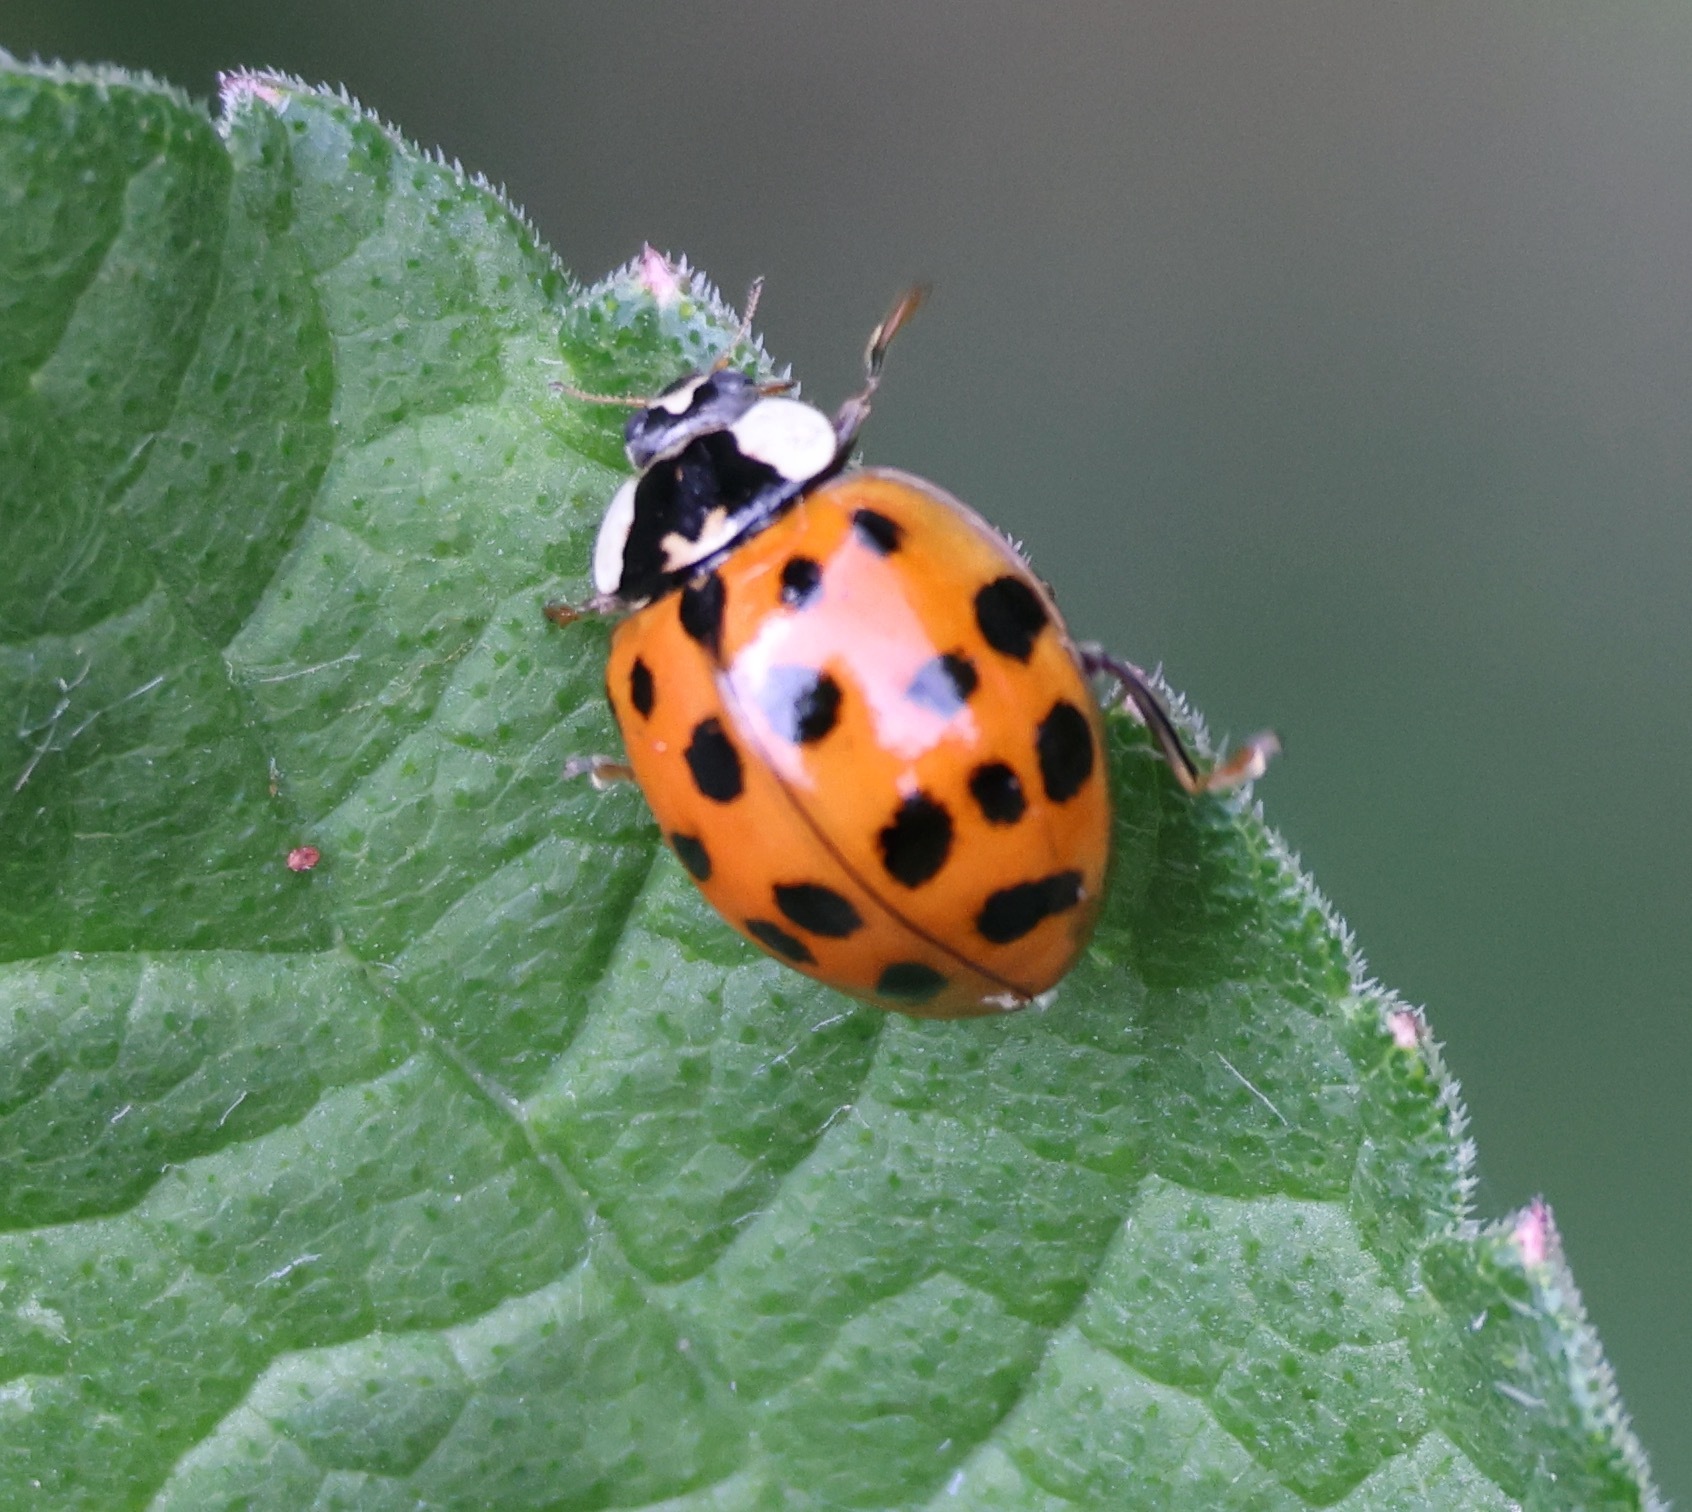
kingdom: Animalia
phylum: Arthropoda
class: Insecta
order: Coleoptera
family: Coccinellidae
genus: Harmonia
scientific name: Harmonia axyridis
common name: Harlequin ladybird
